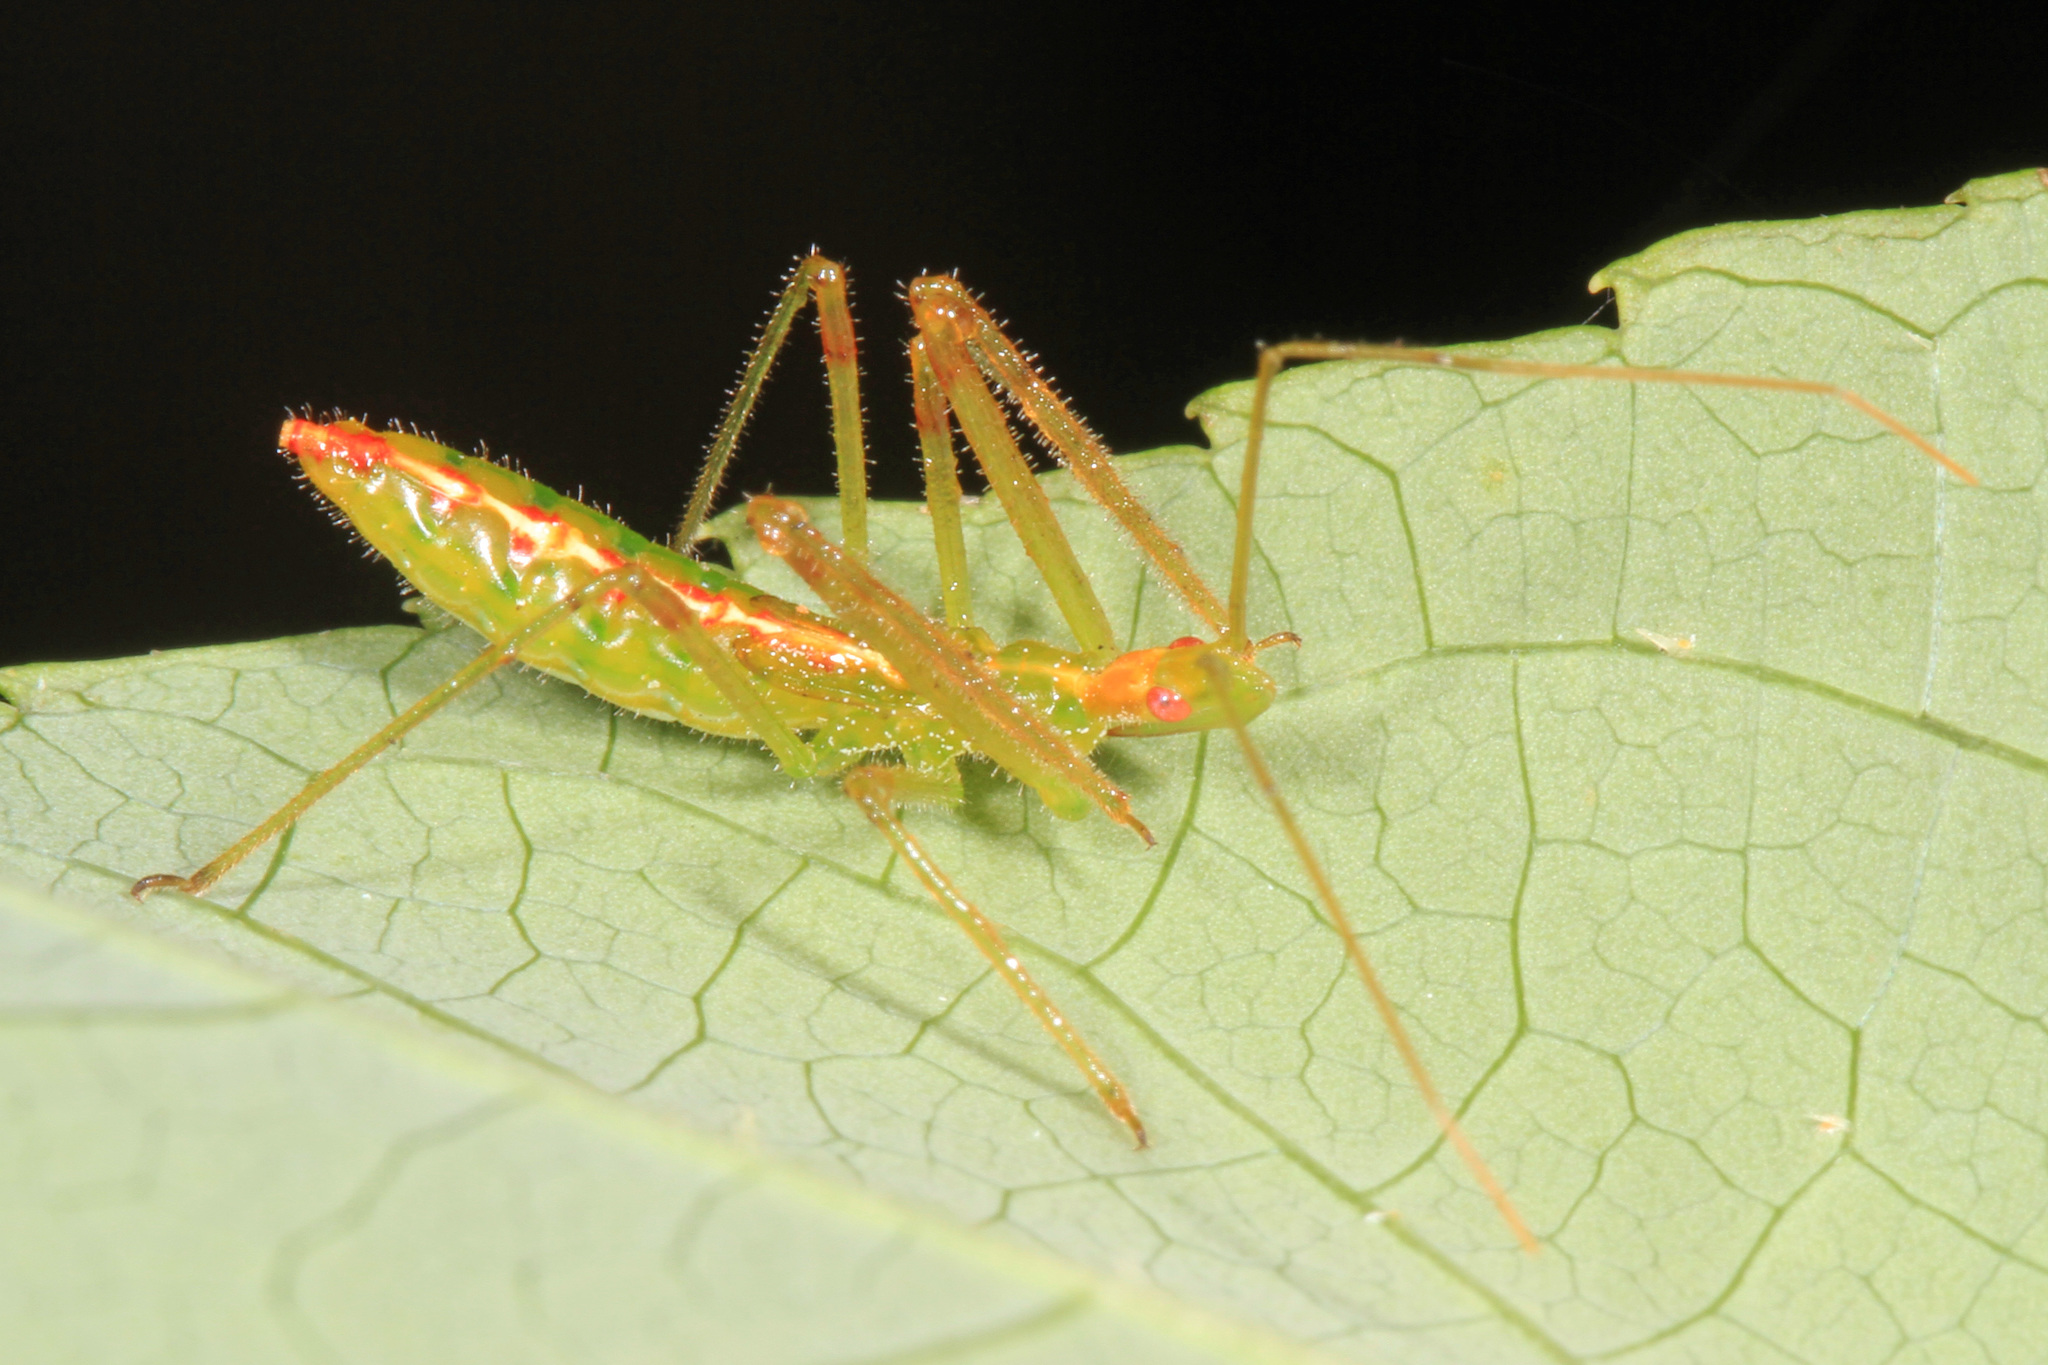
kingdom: Animalia
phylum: Arthropoda
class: Insecta
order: Hemiptera
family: Reduviidae
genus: Zelus
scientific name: Zelus luridus
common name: Pale green assassin bug
